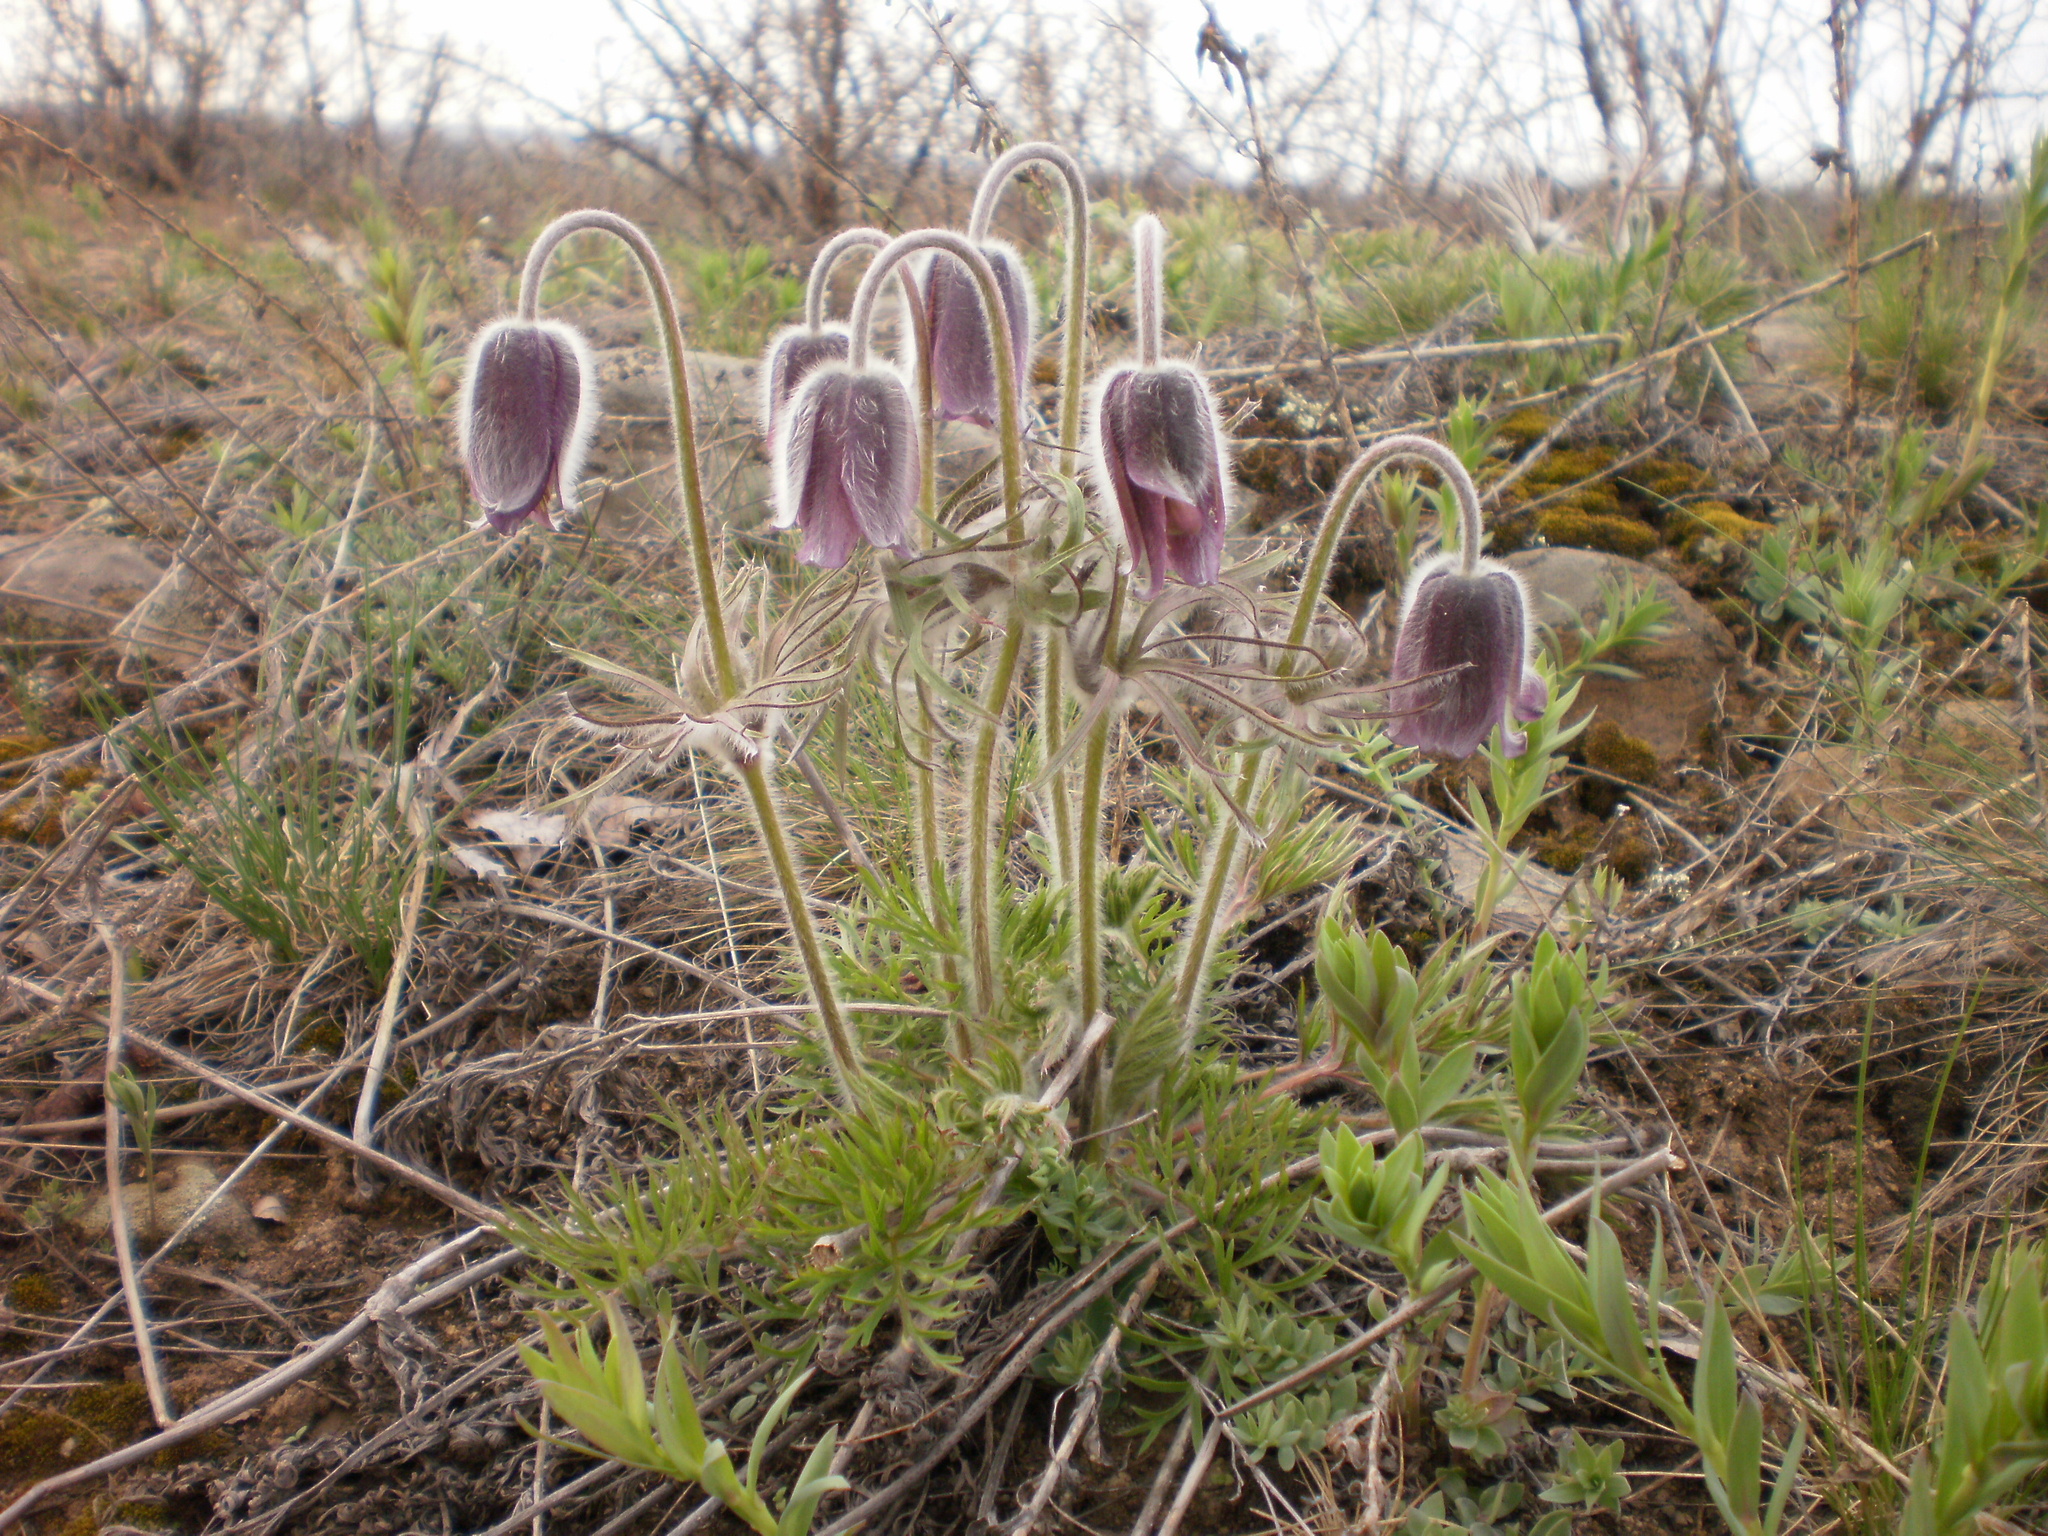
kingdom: Plantae
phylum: Tracheophyta
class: Magnoliopsida
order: Ranunculales
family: Ranunculaceae
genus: Pulsatilla
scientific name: Pulsatilla pratensis
